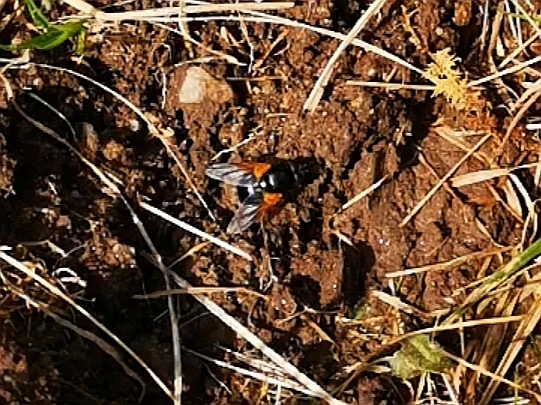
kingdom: Animalia
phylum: Arthropoda
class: Insecta
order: Diptera
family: Muscidae
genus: Mesembrina
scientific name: Mesembrina meridiana
